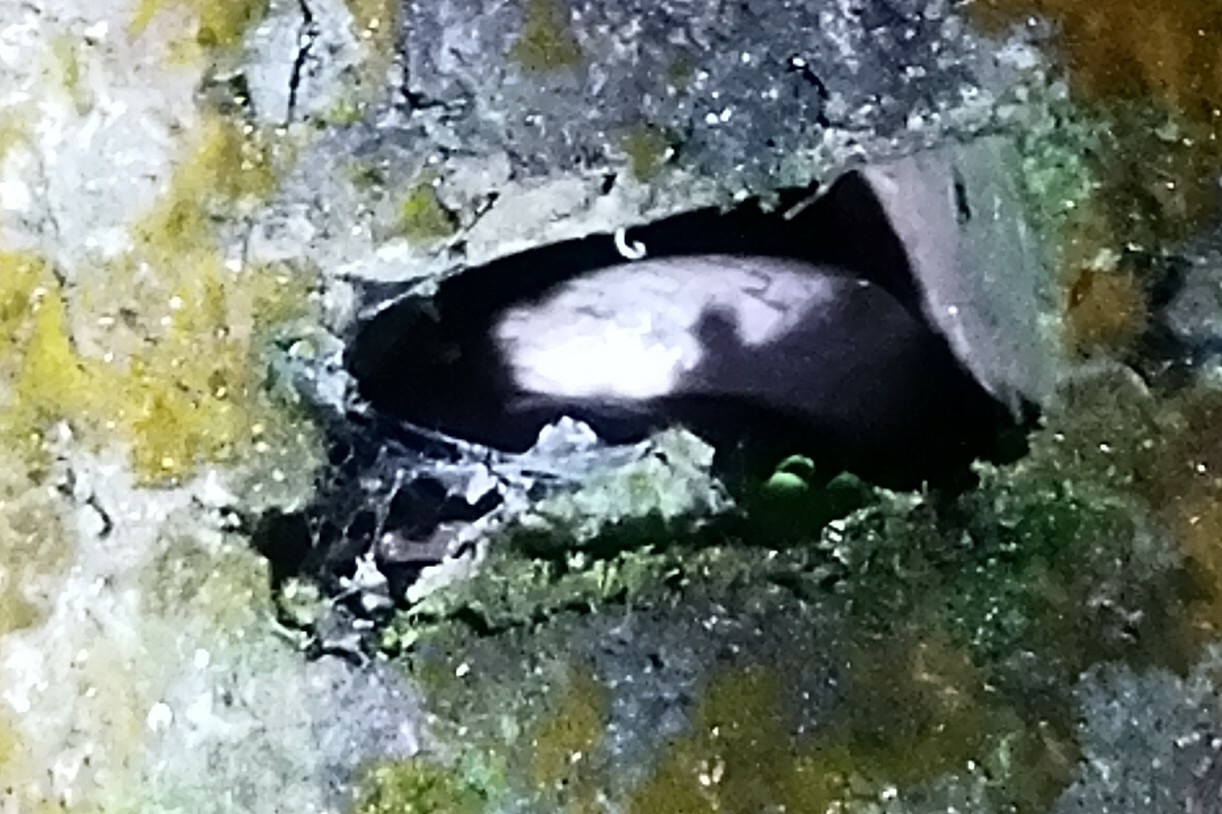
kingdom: Animalia
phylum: Chordata
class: Squamata
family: Colubridae
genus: Oligodon
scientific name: Oligodon formosanus
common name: Formosa kukri snake
